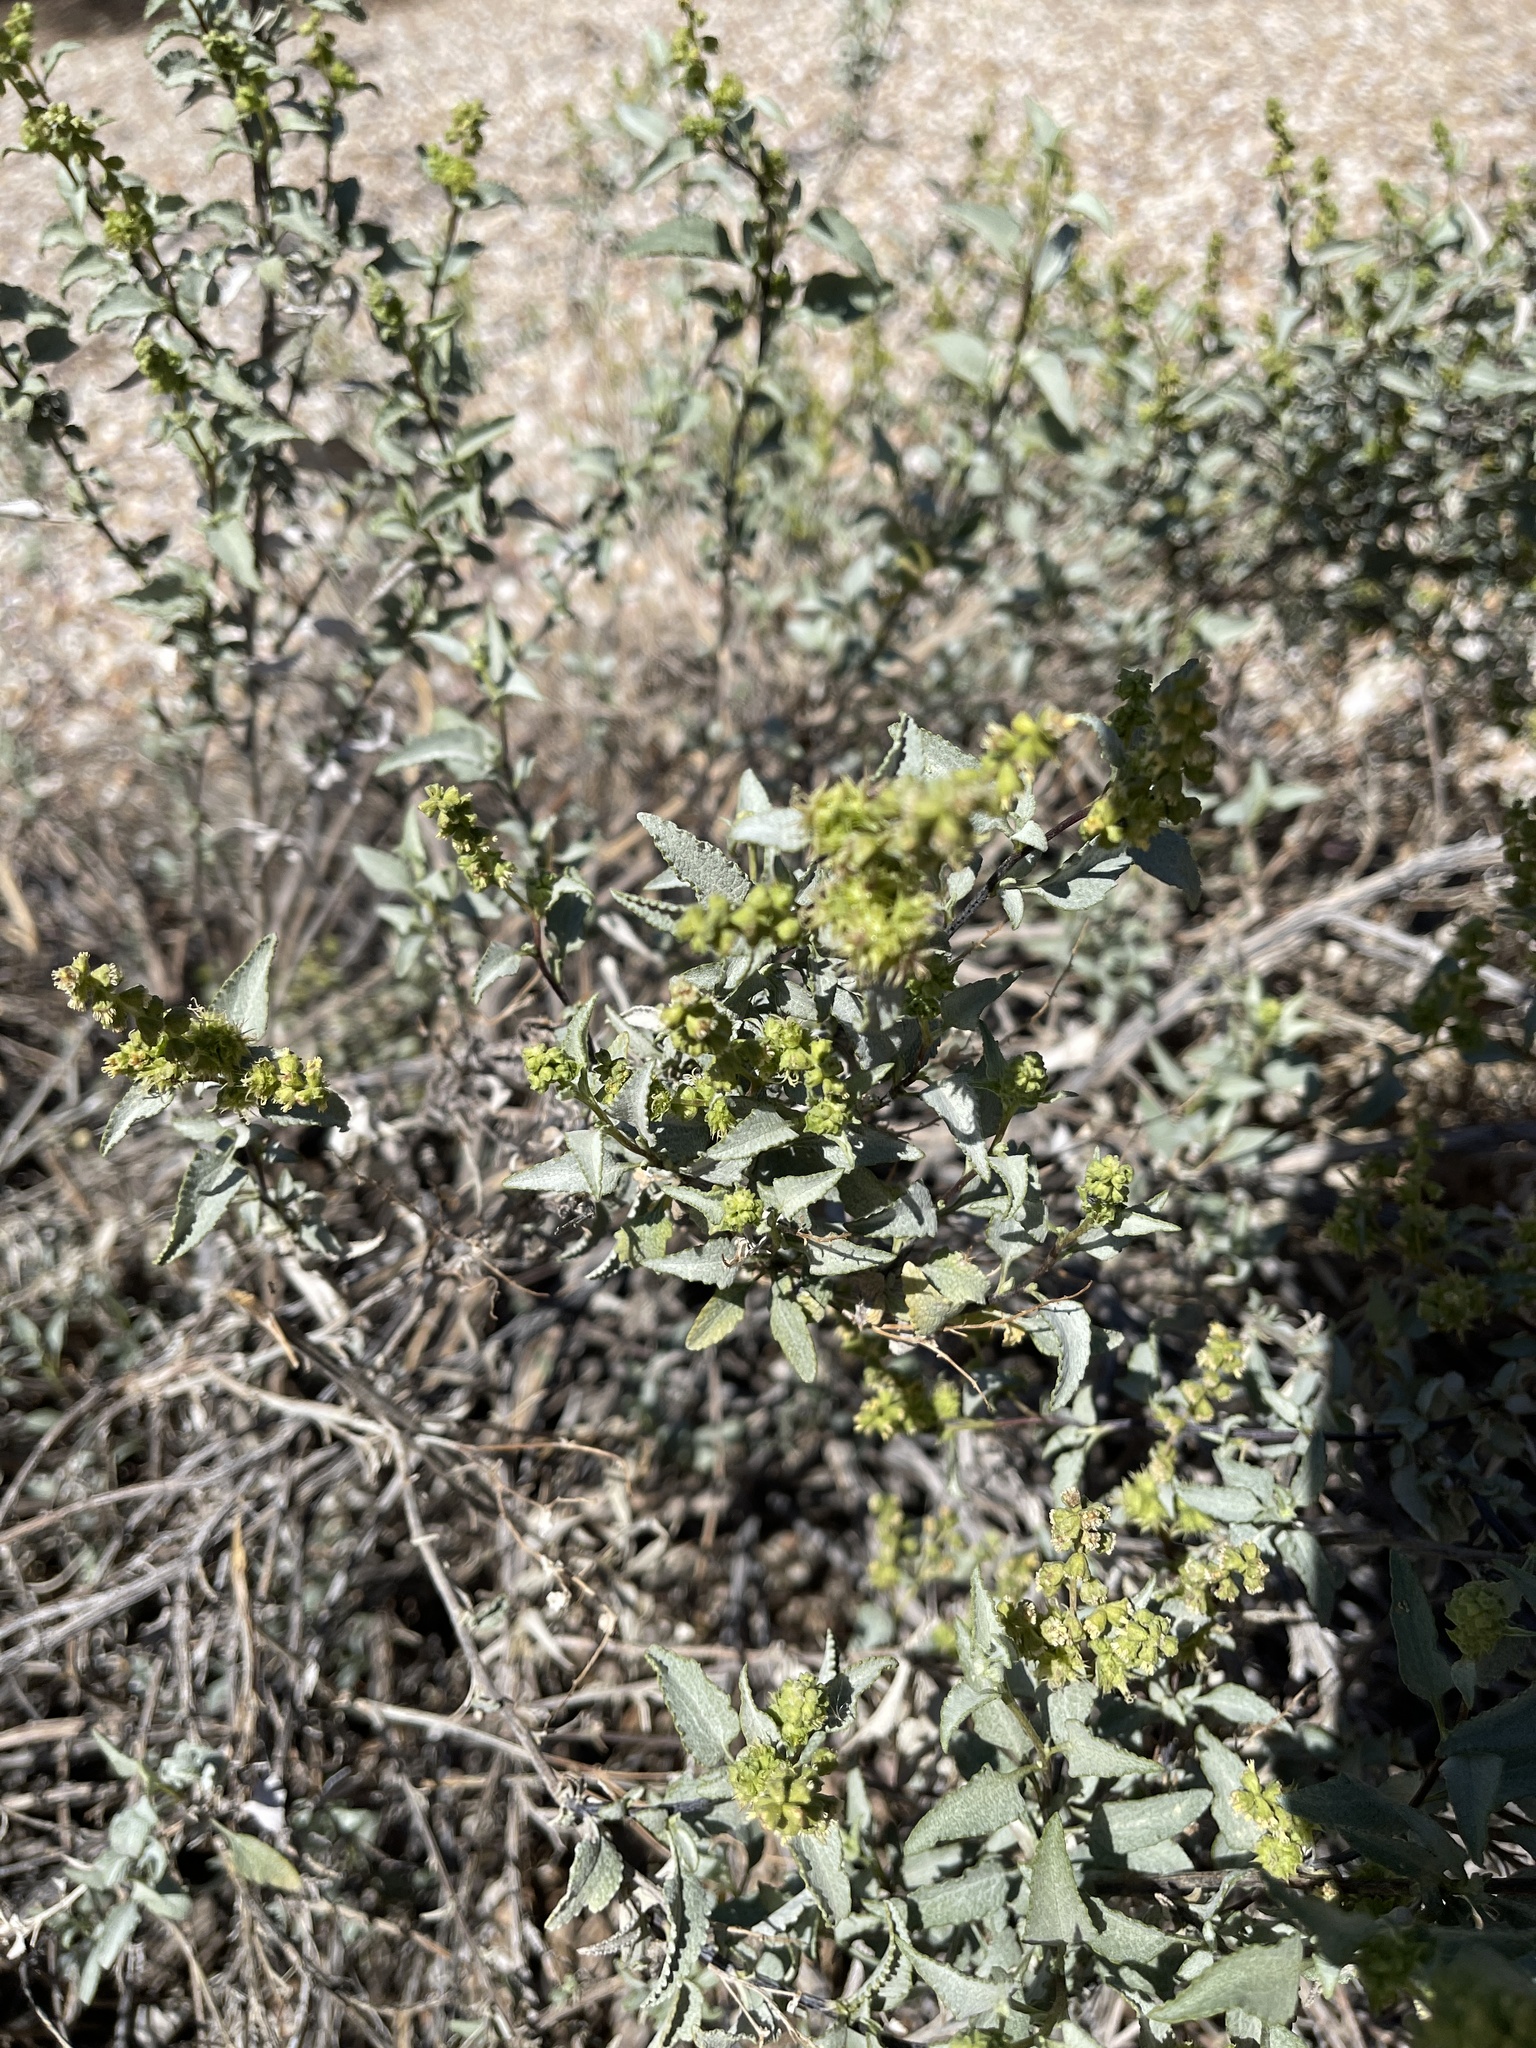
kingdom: Plantae
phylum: Tracheophyta
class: Magnoliopsida
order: Asterales
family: Asteraceae
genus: Ambrosia
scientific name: Ambrosia deltoidea
